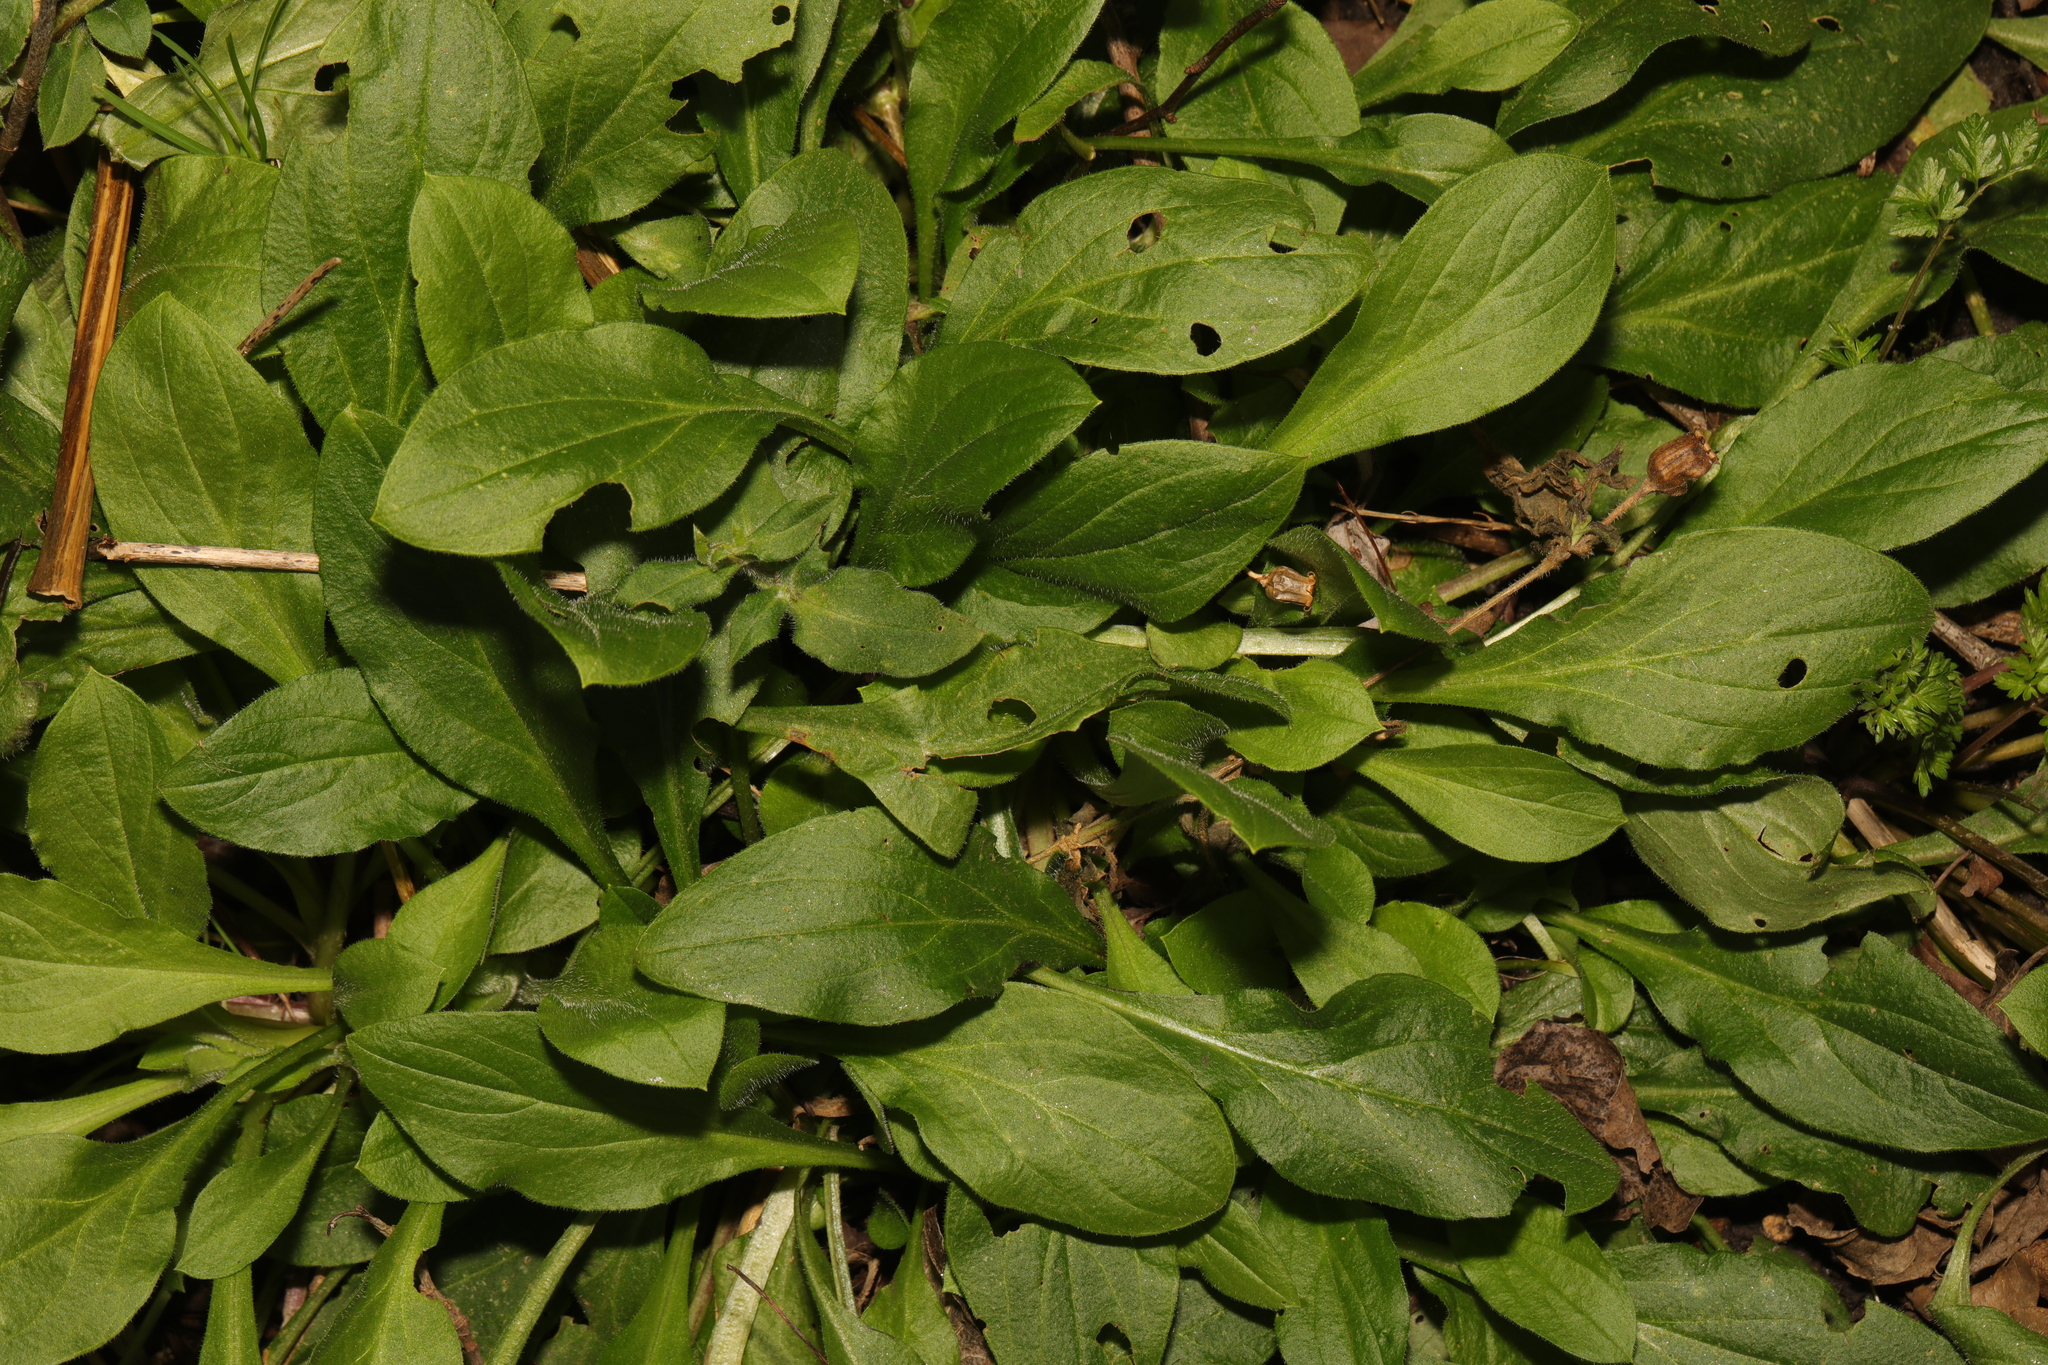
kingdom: Plantae
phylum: Tracheophyta
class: Magnoliopsida
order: Caryophyllales
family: Caryophyllaceae
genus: Silene
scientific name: Silene dioica
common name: Red campion
